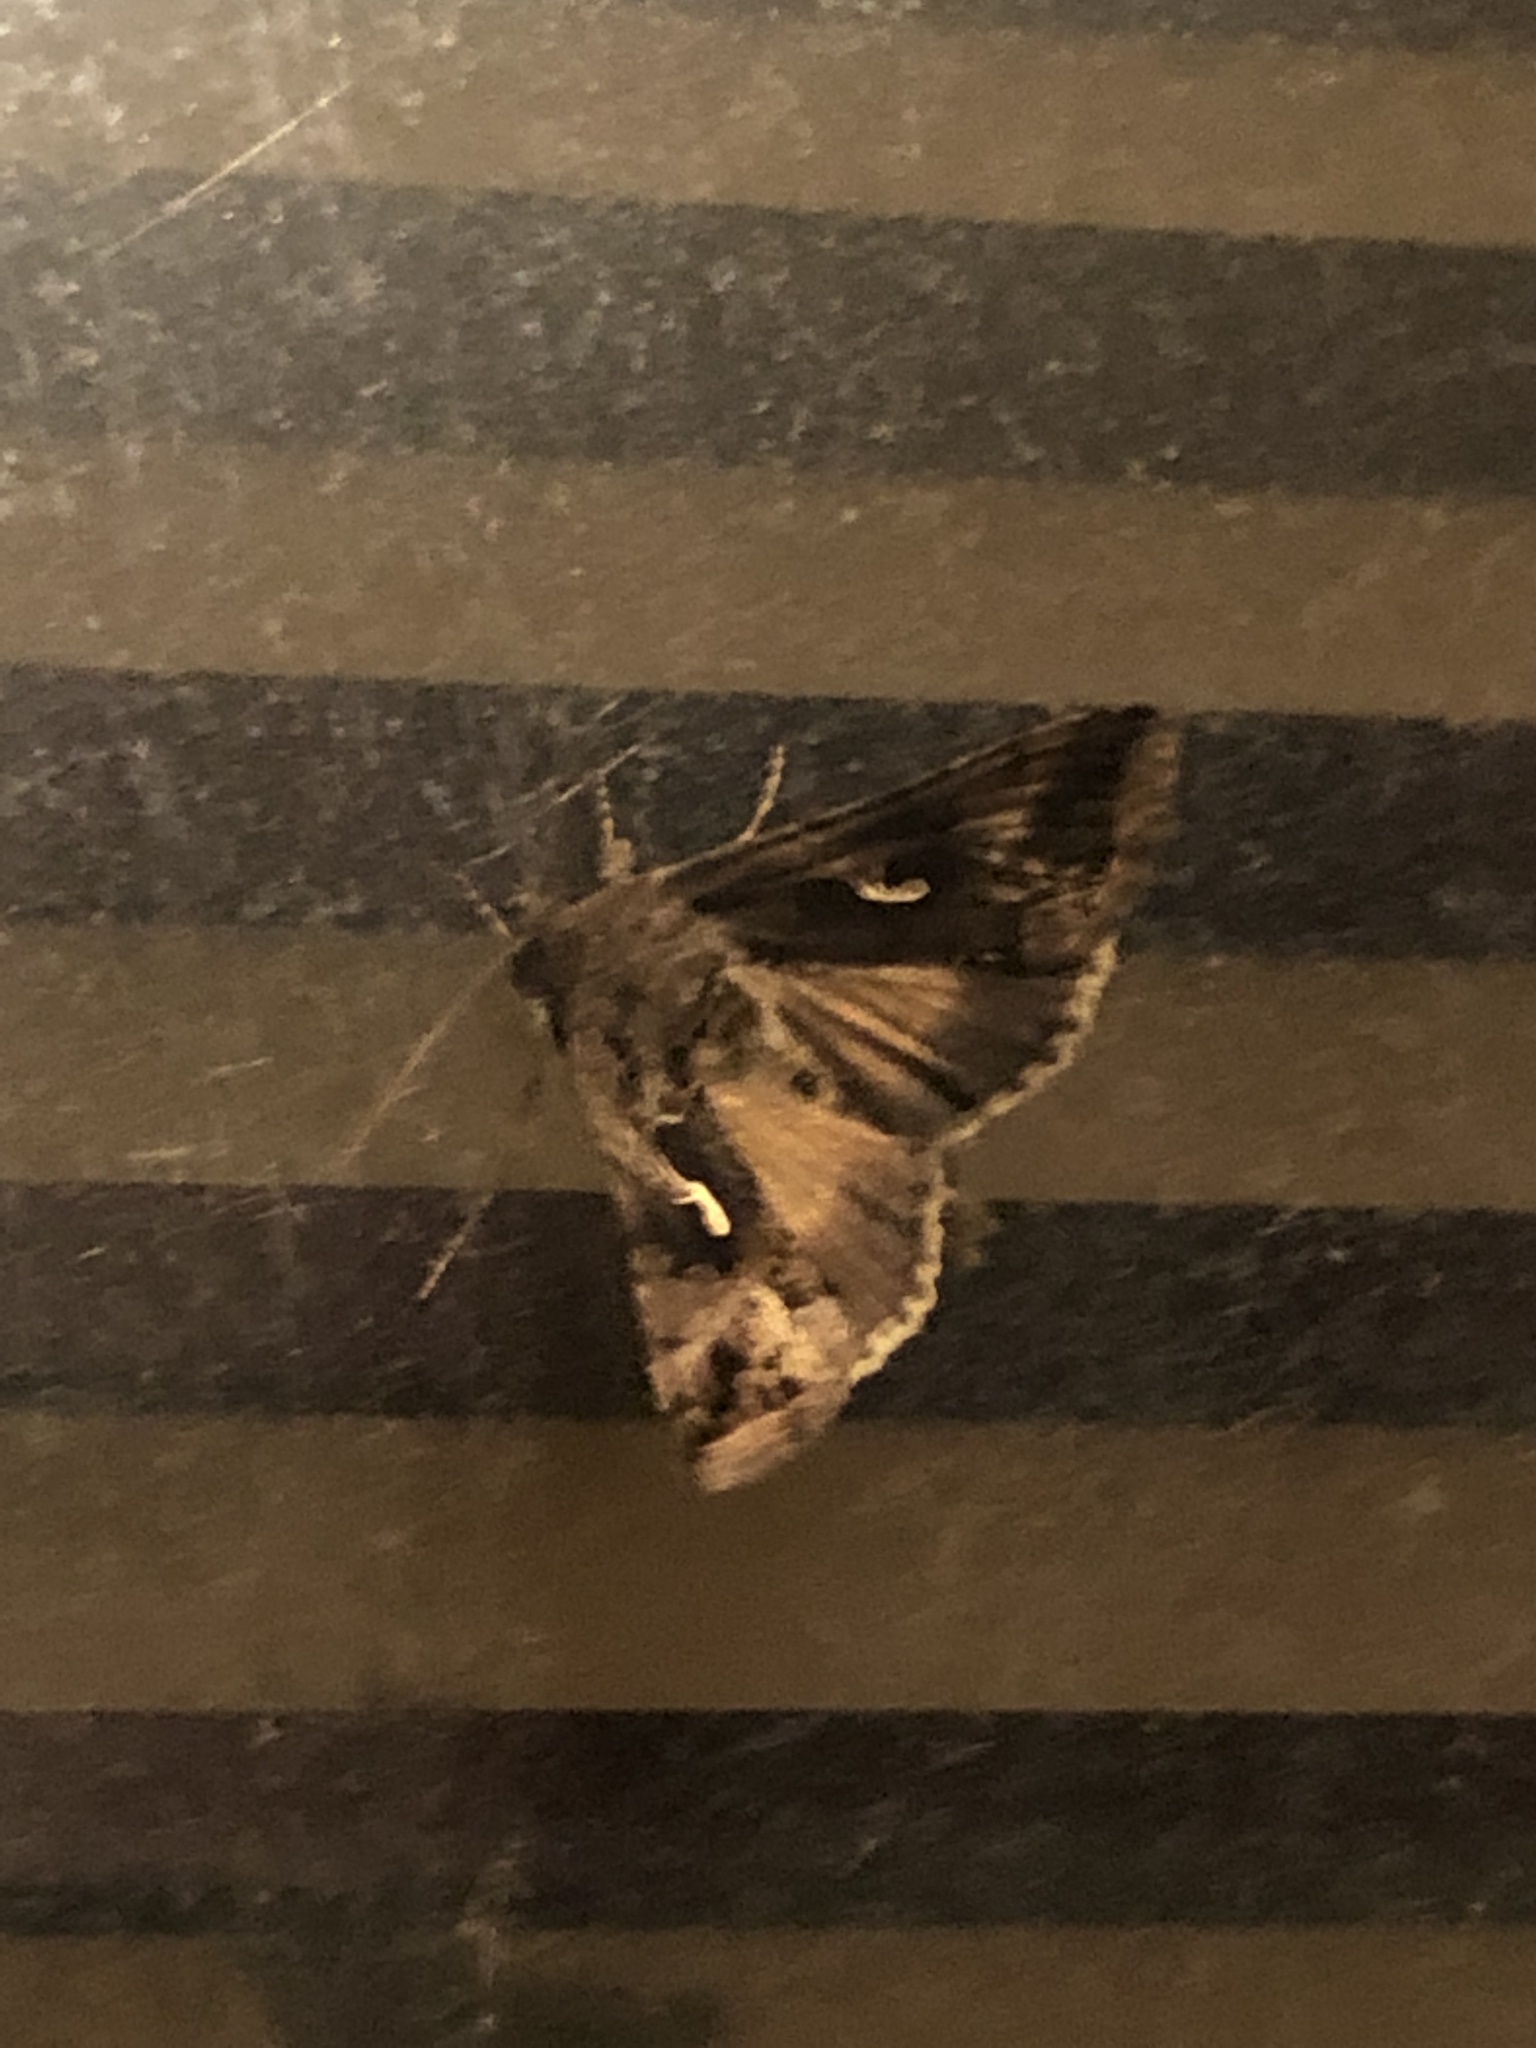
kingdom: Animalia
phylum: Arthropoda
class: Insecta
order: Lepidoptera
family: Noctuidae
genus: Autographa
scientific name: Autographa gamma
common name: Silver y
